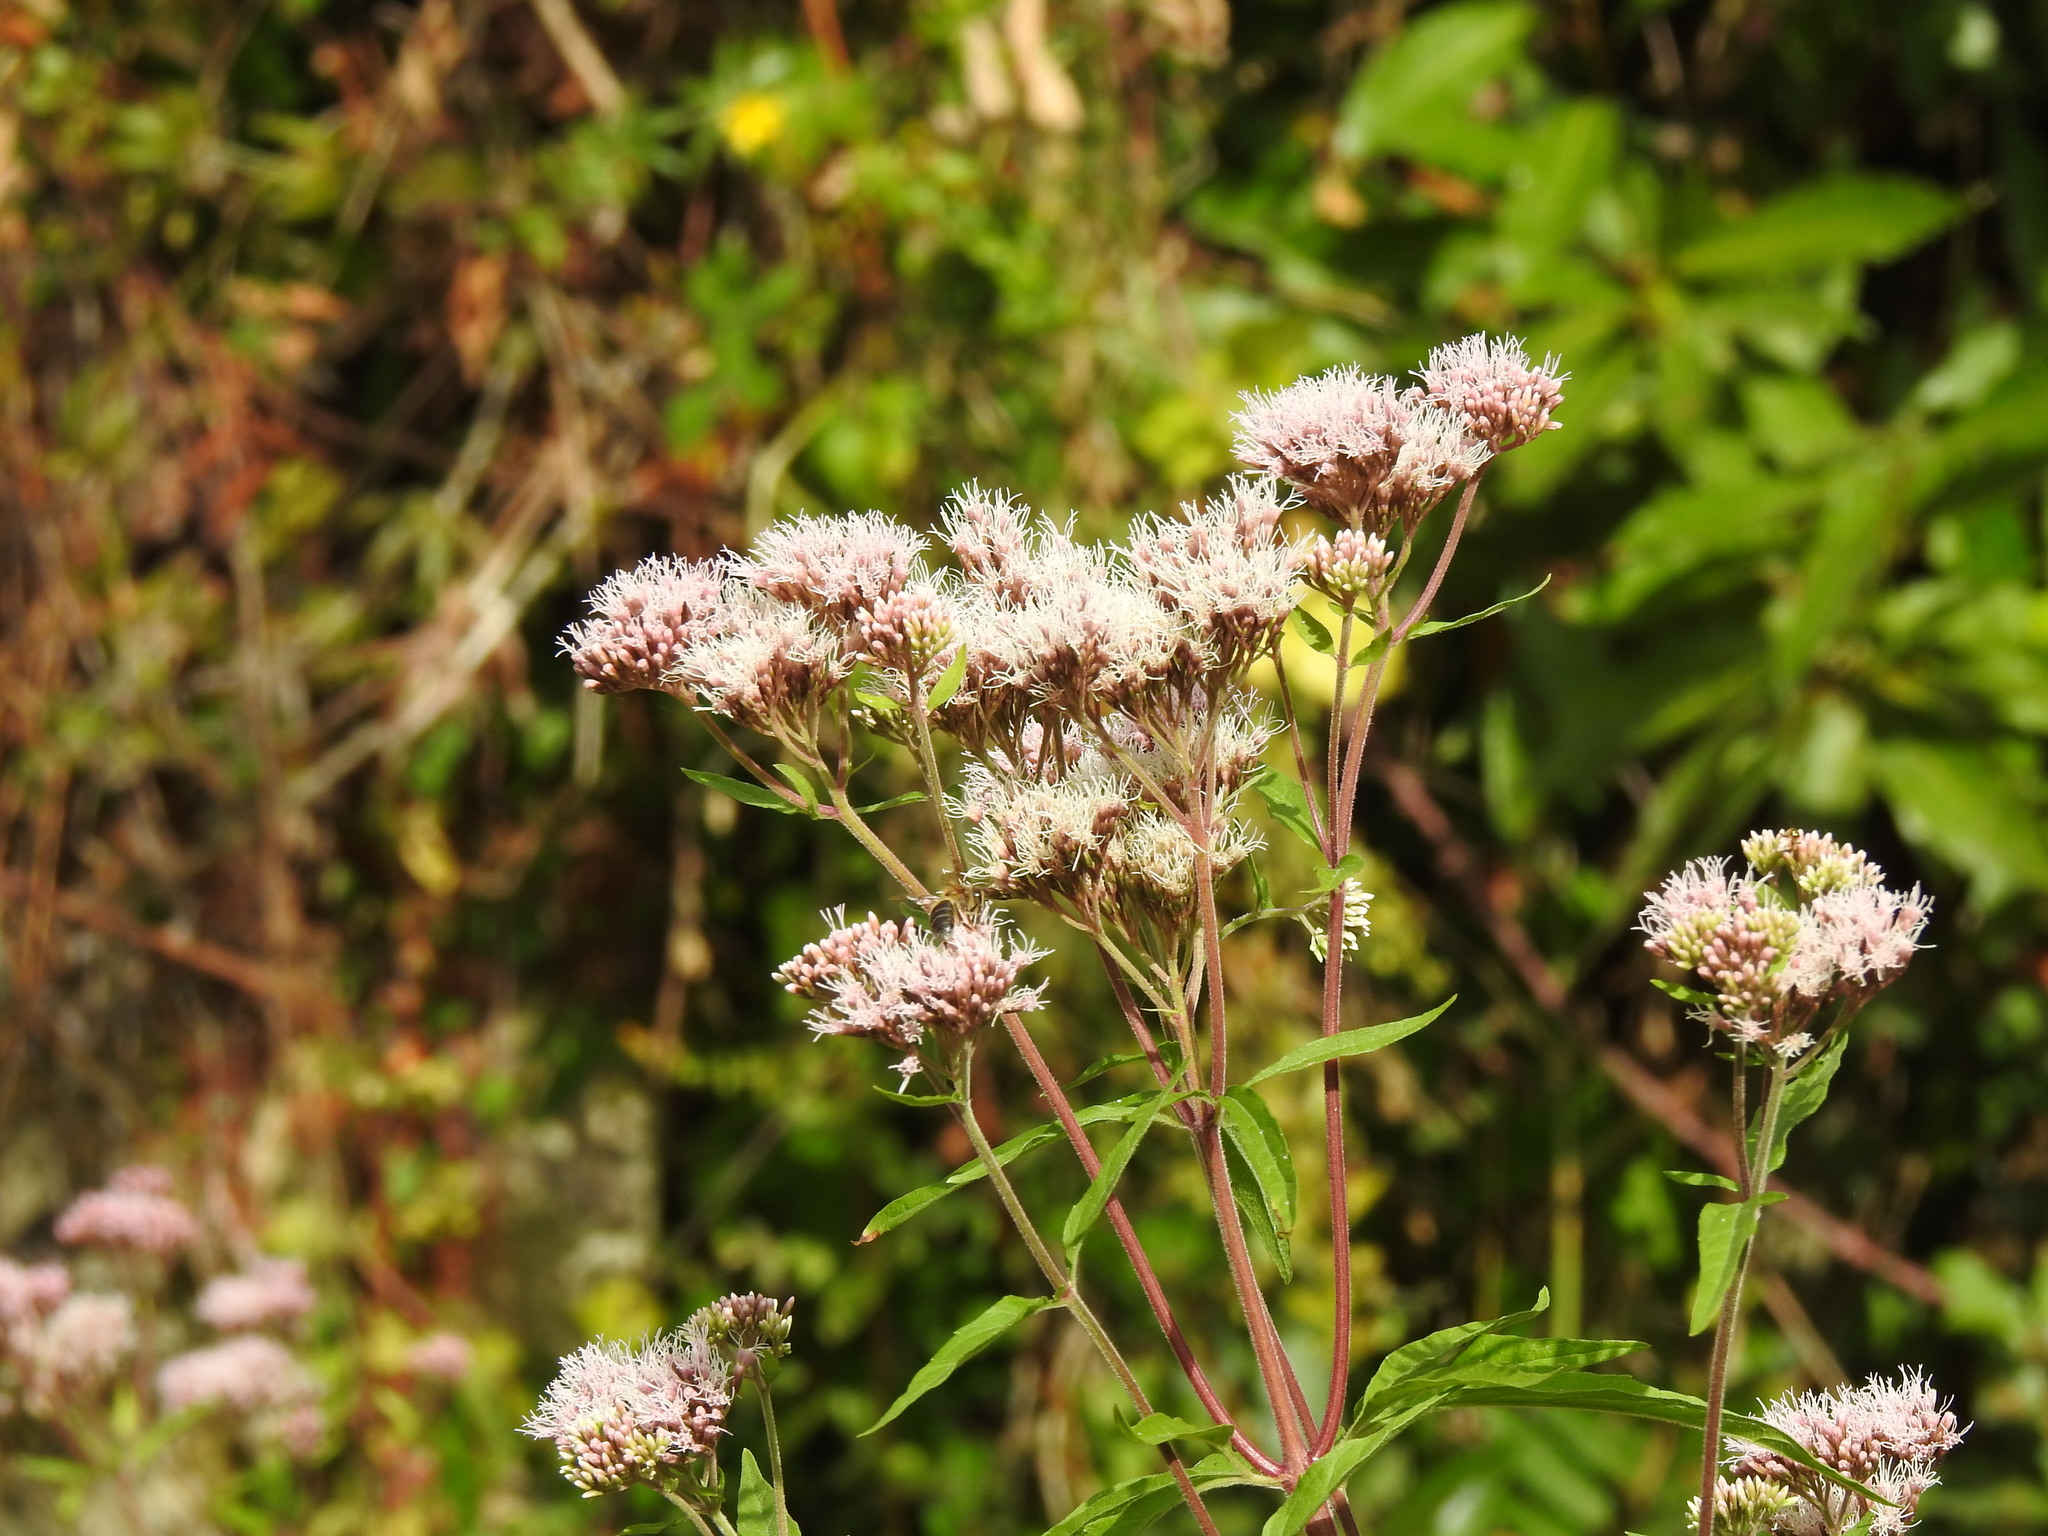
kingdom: Plantae
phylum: Tracheophyta
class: Magnoliopsida
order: Asterales
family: Asteraceae
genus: Eupatorium
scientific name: Eupatorium cannabinum
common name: Hemp-agrimony
